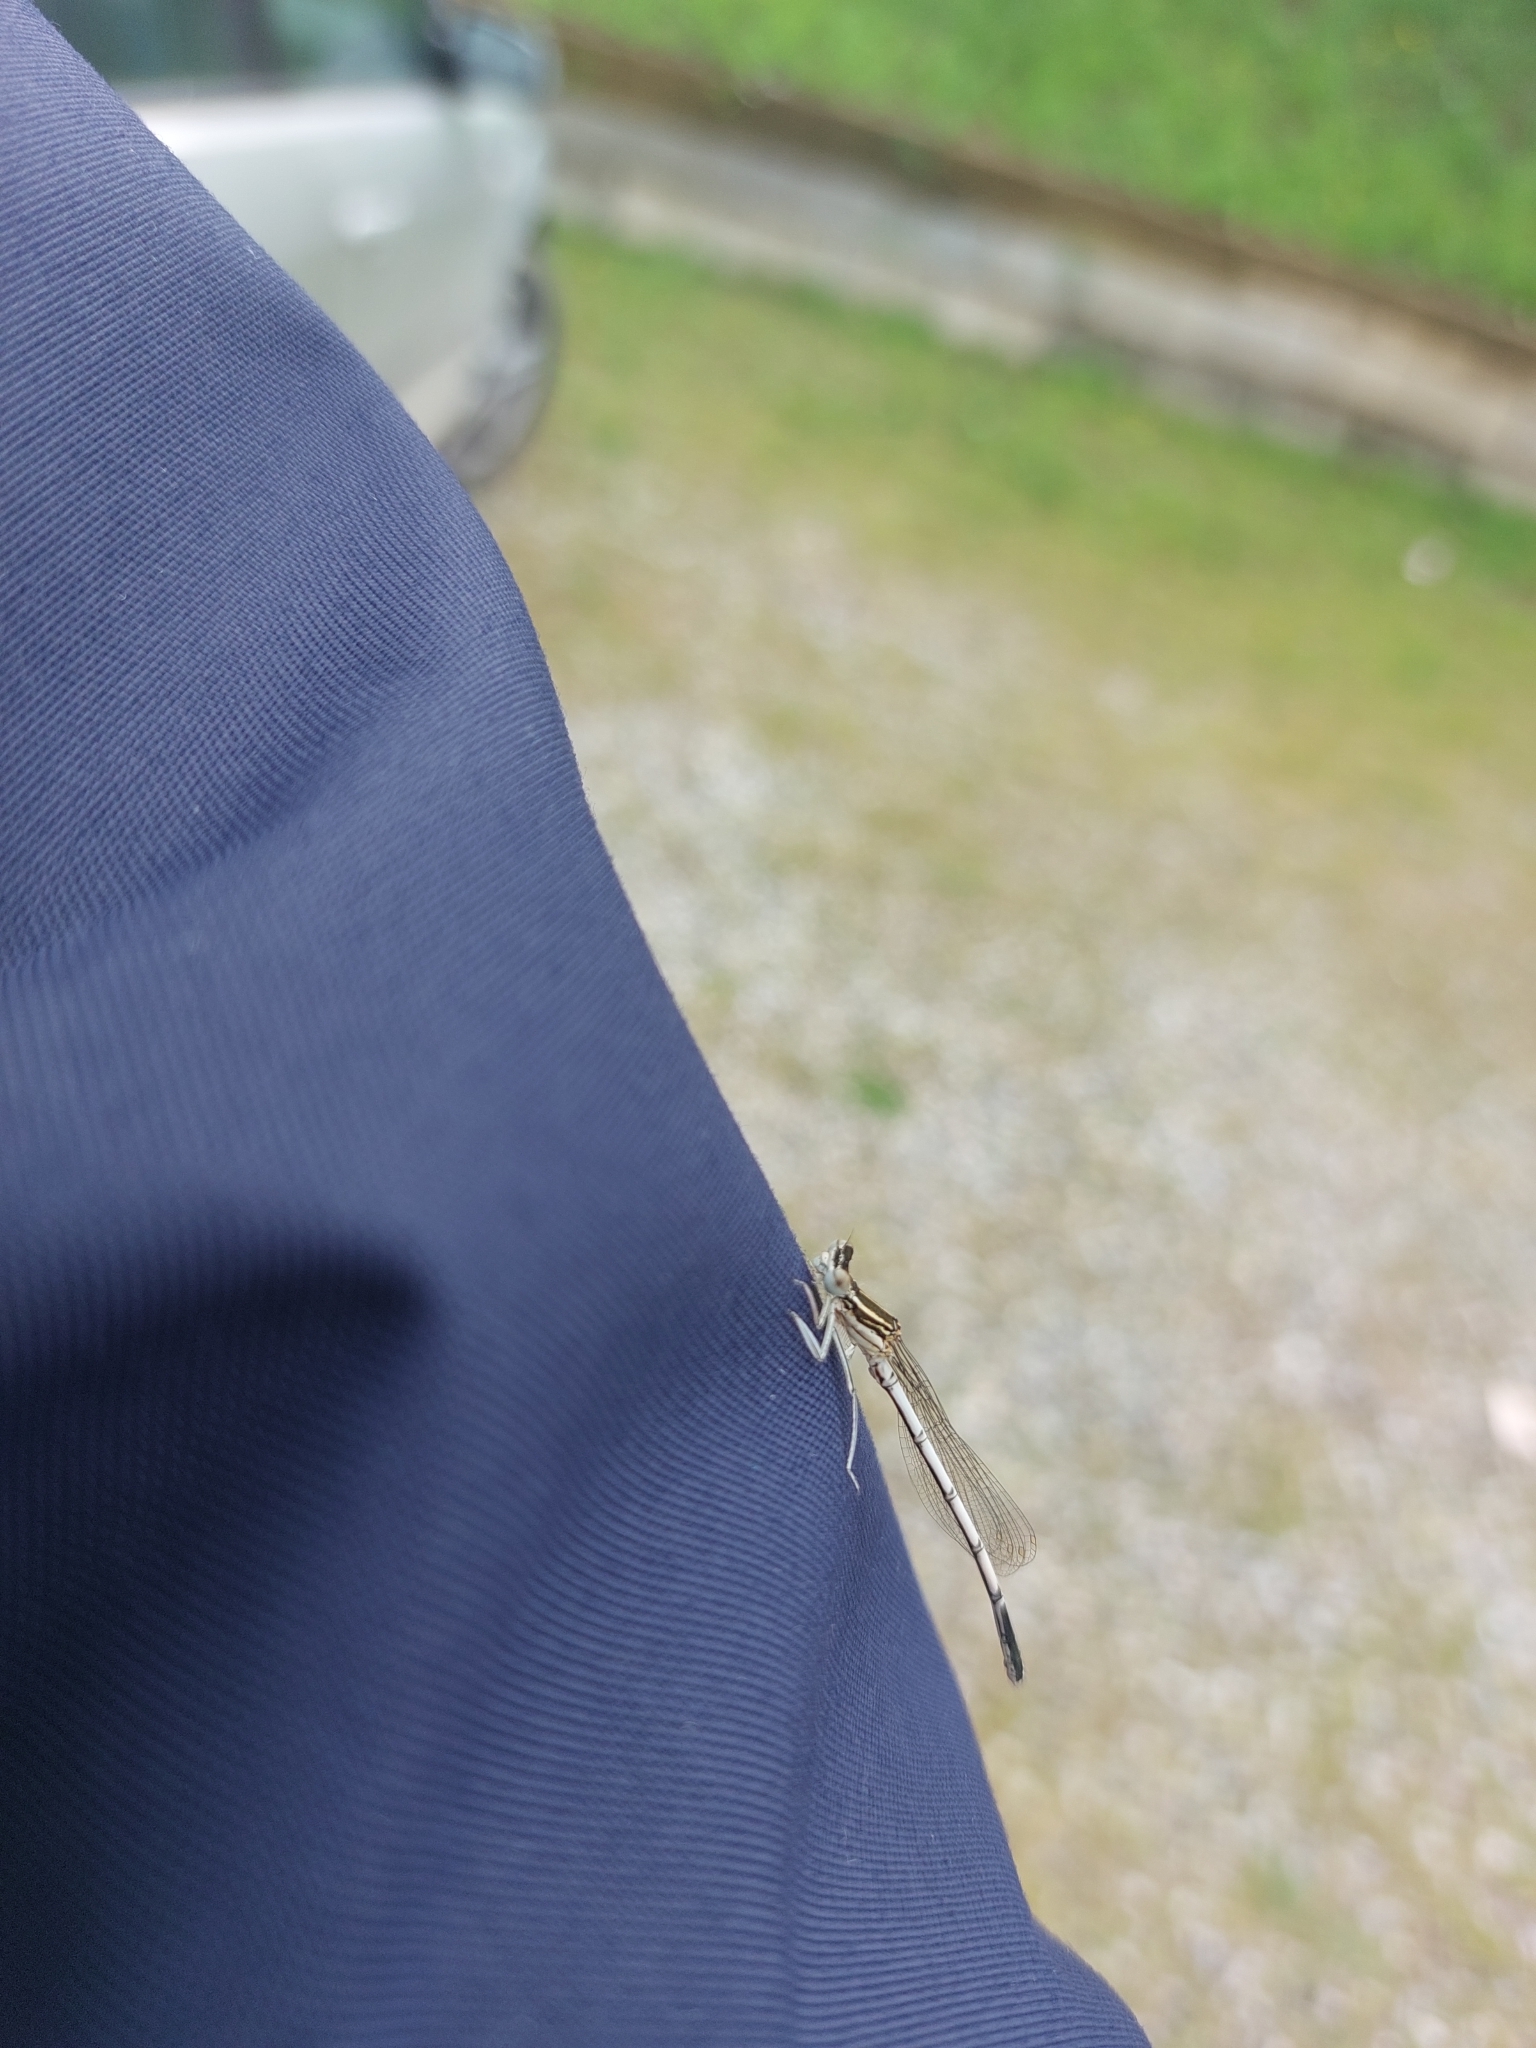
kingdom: Animalia
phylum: Arthropoda
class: Insecta
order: Odonata
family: Platycnemididae
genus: Platycnemis
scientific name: Platycnemis pennipes
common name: White-legged damselfly
